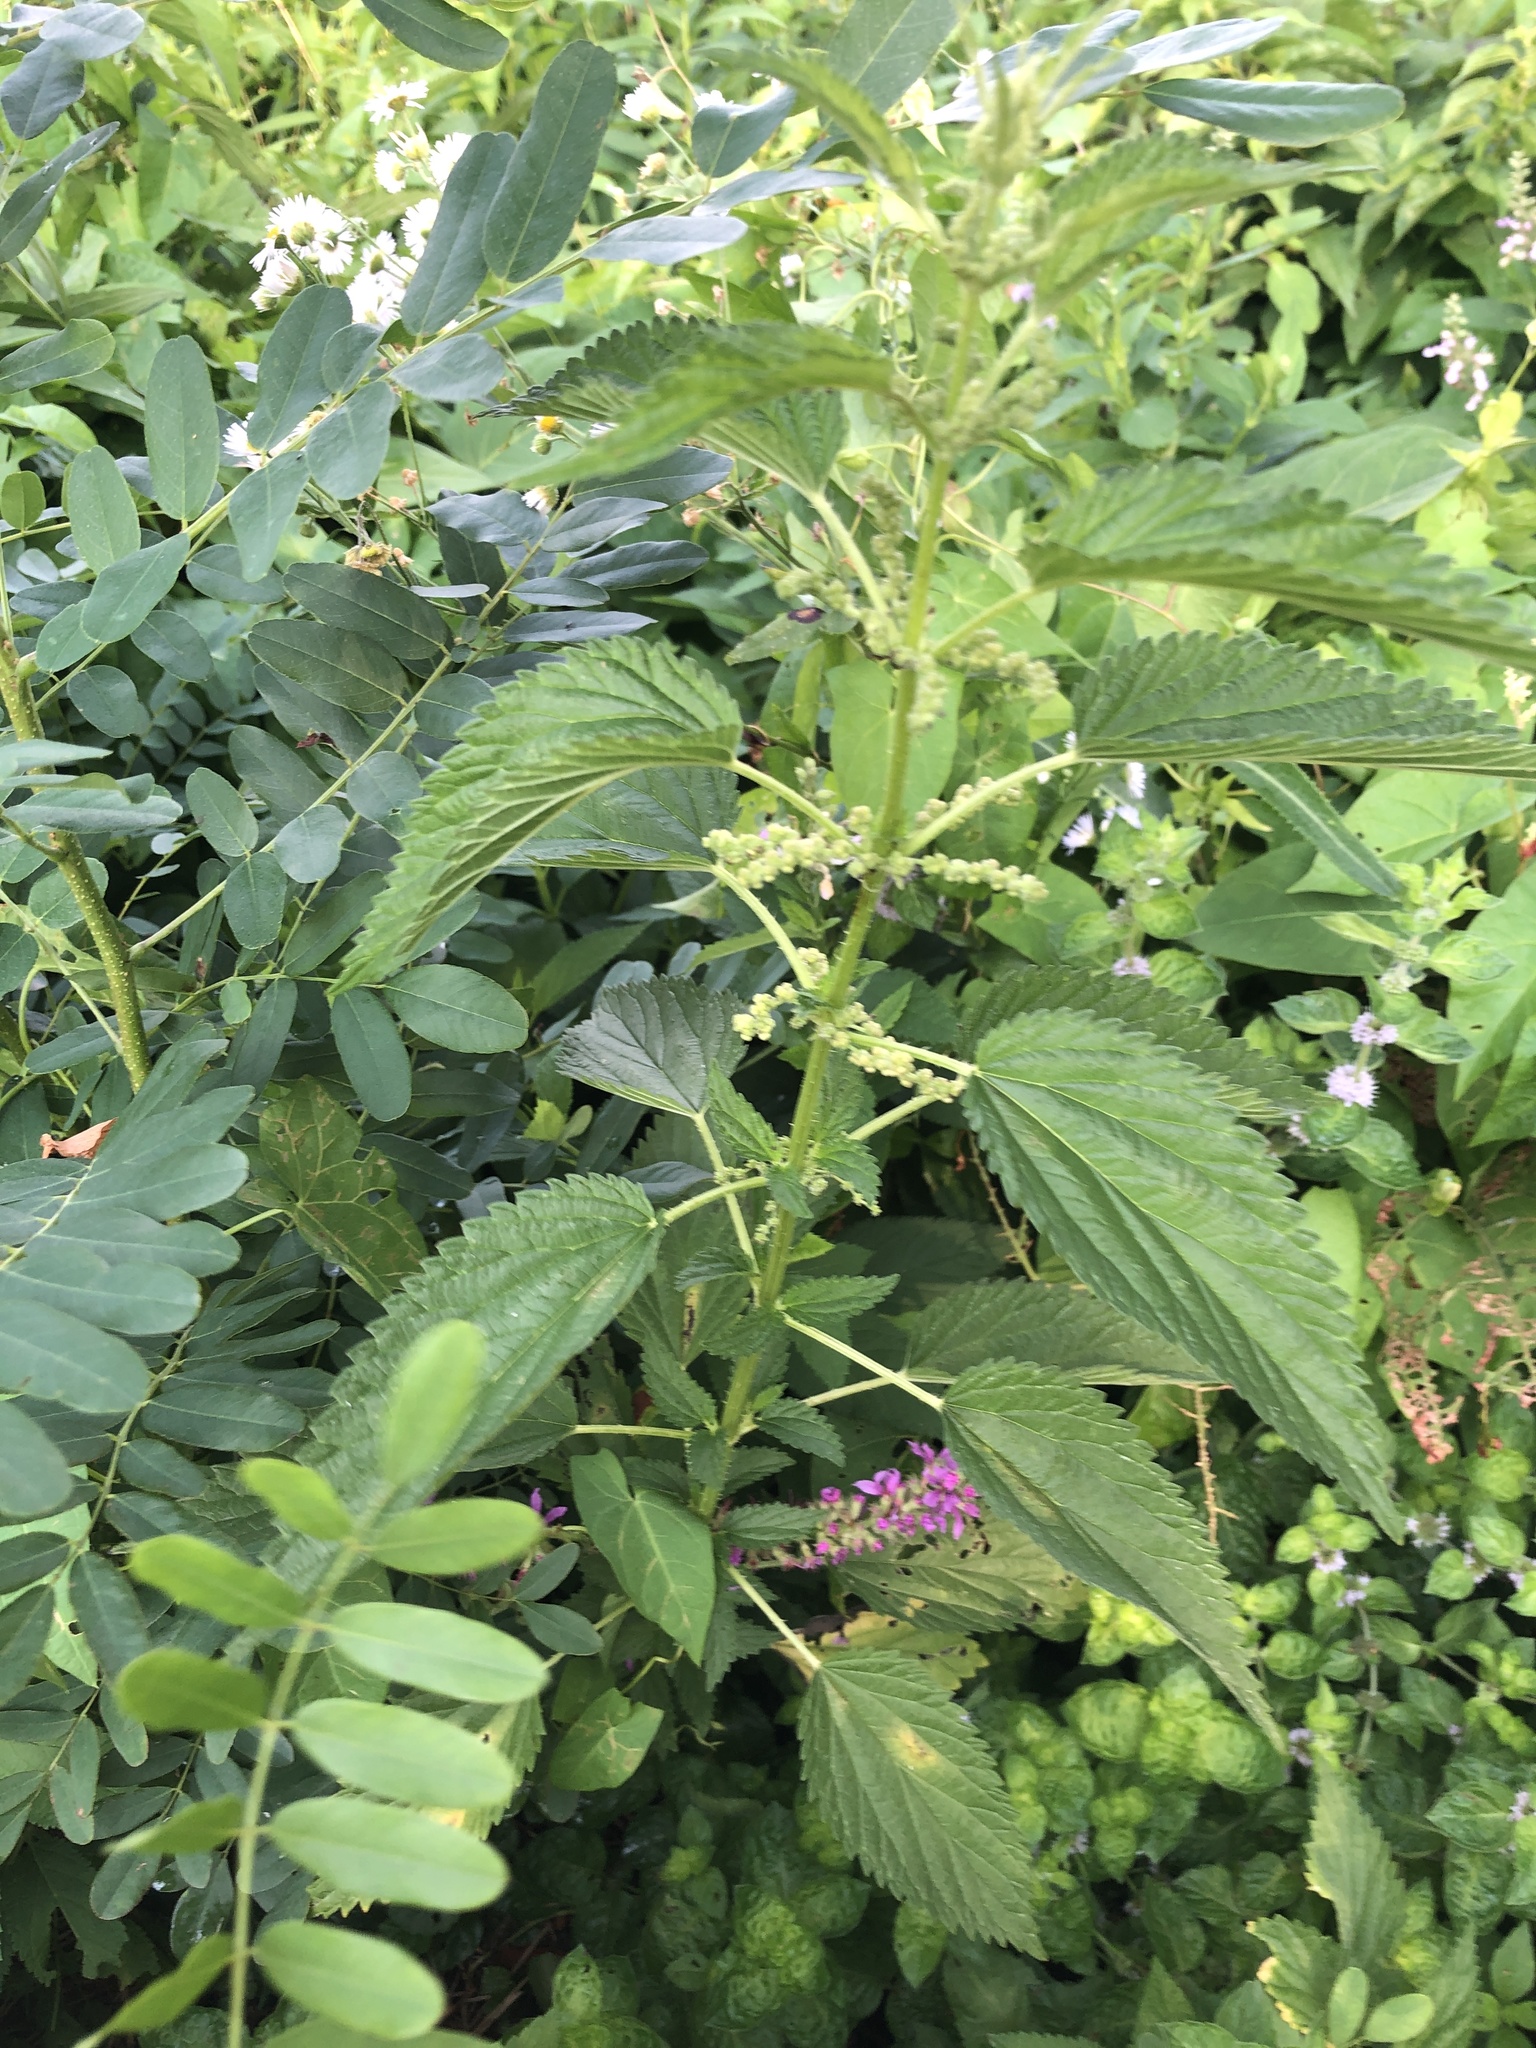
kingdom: Plantae
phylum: Tracheophyta
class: Magnoliopsida
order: Rosales
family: Urticaceae
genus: Urtica
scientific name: Urtica dioica
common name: Common nettle
